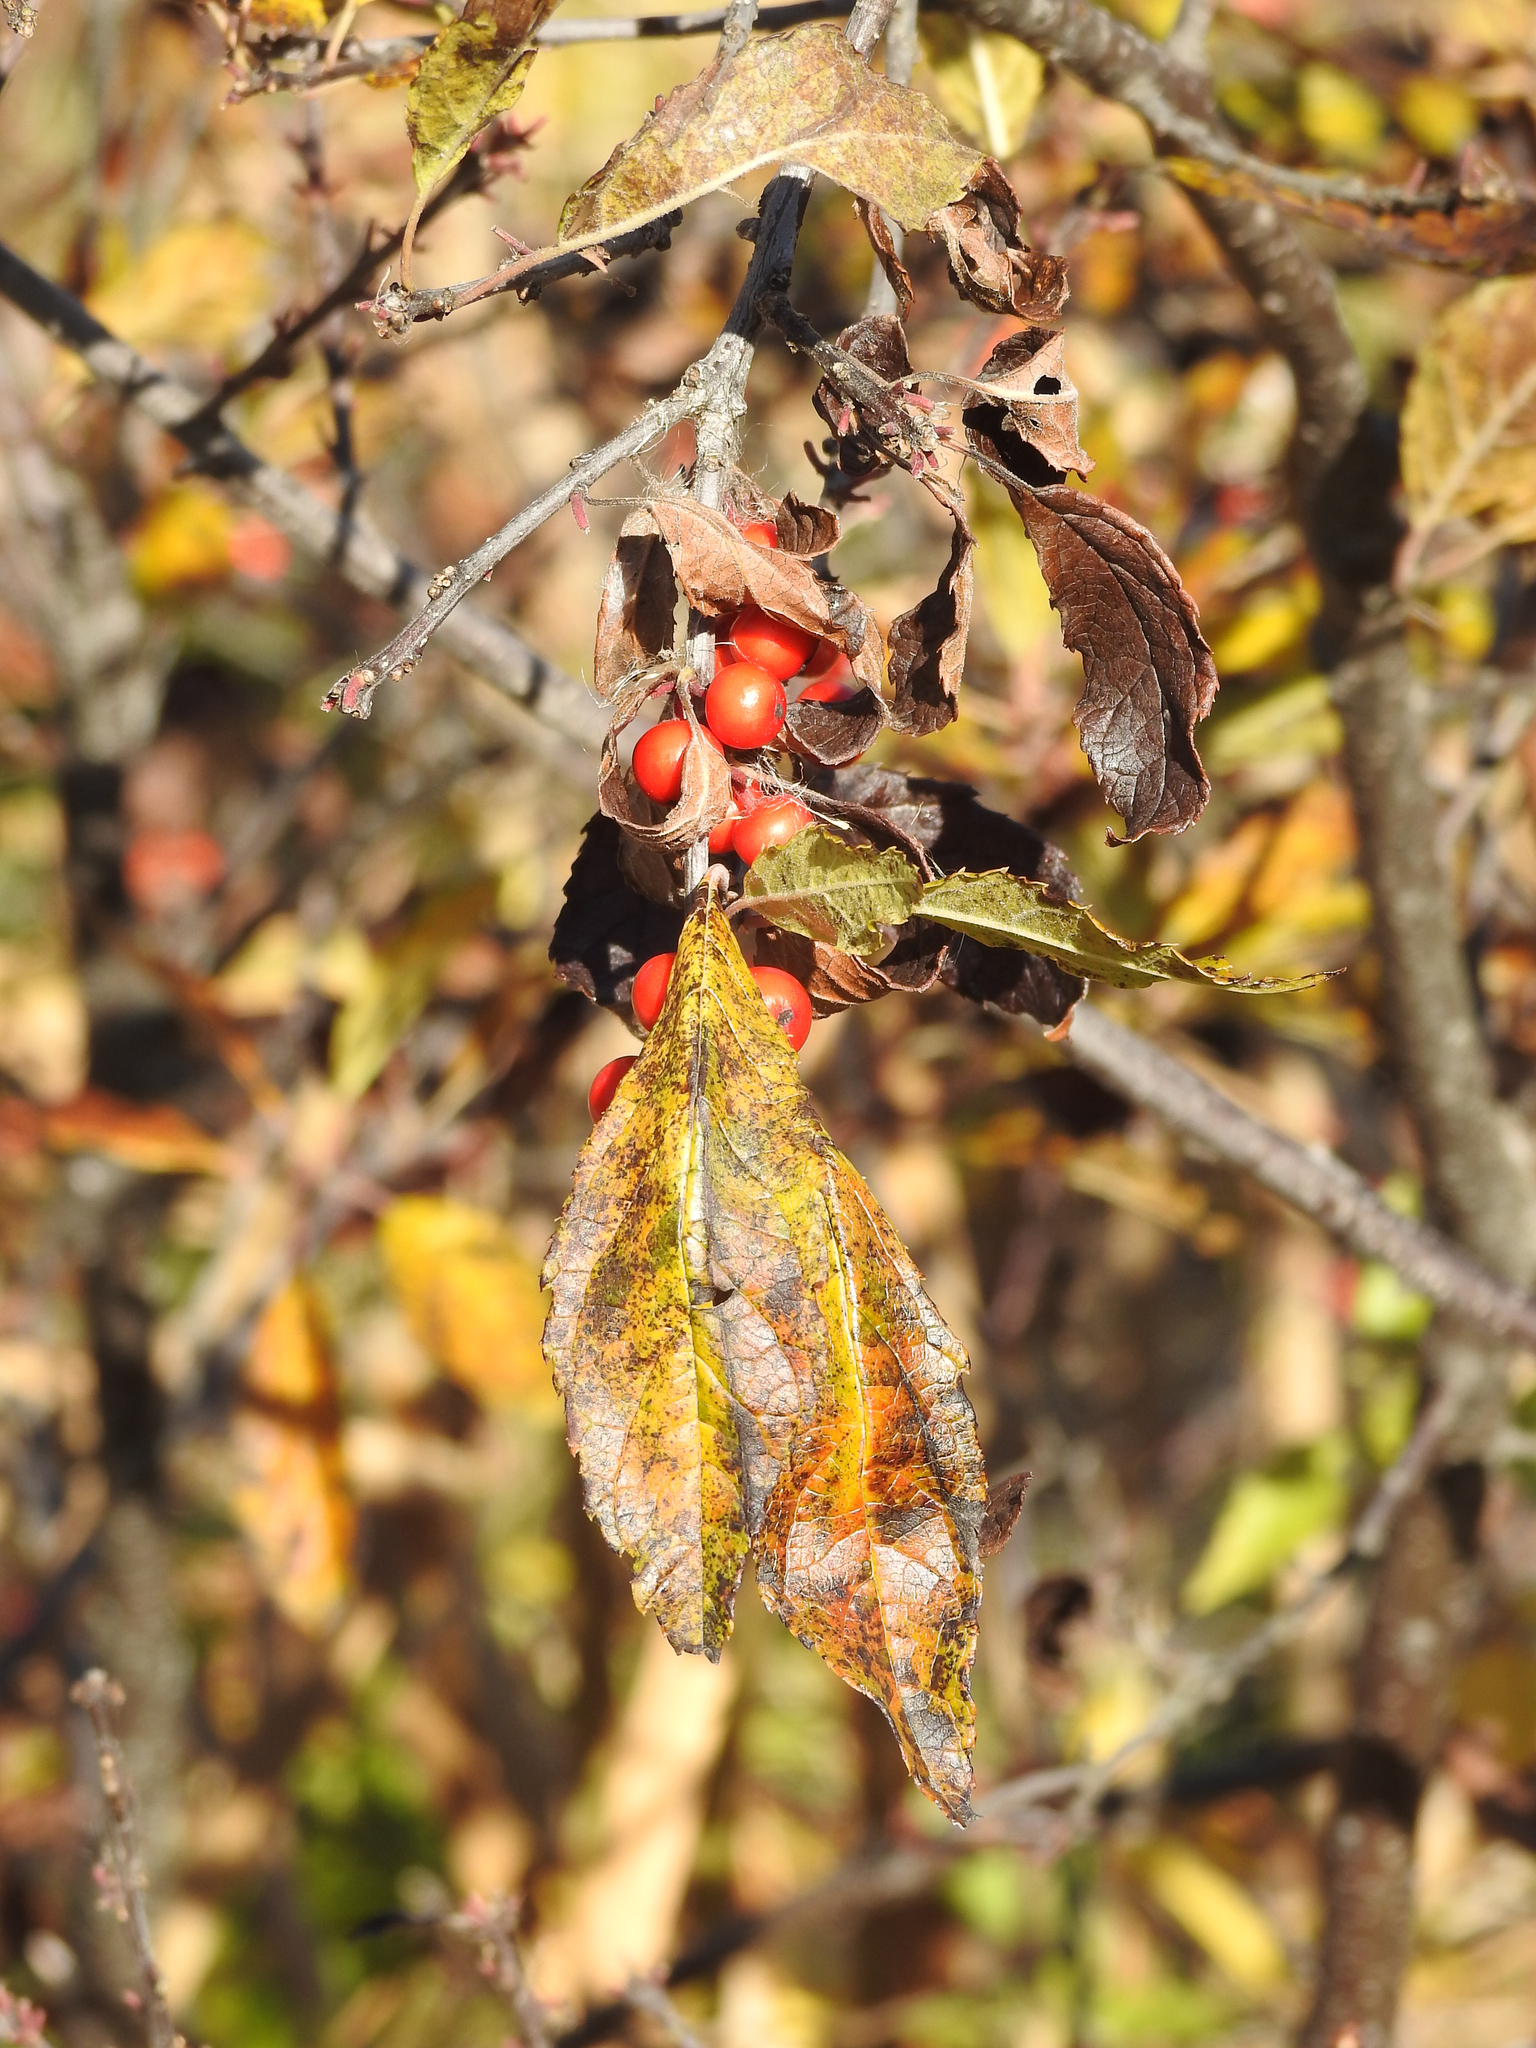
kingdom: Plantae
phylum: Tracheophyta
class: Magnoliopsida
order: Aquifoliales
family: Aquifoliaceae
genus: Ilex
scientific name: Ilex verticillata
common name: Virginia winterberry
